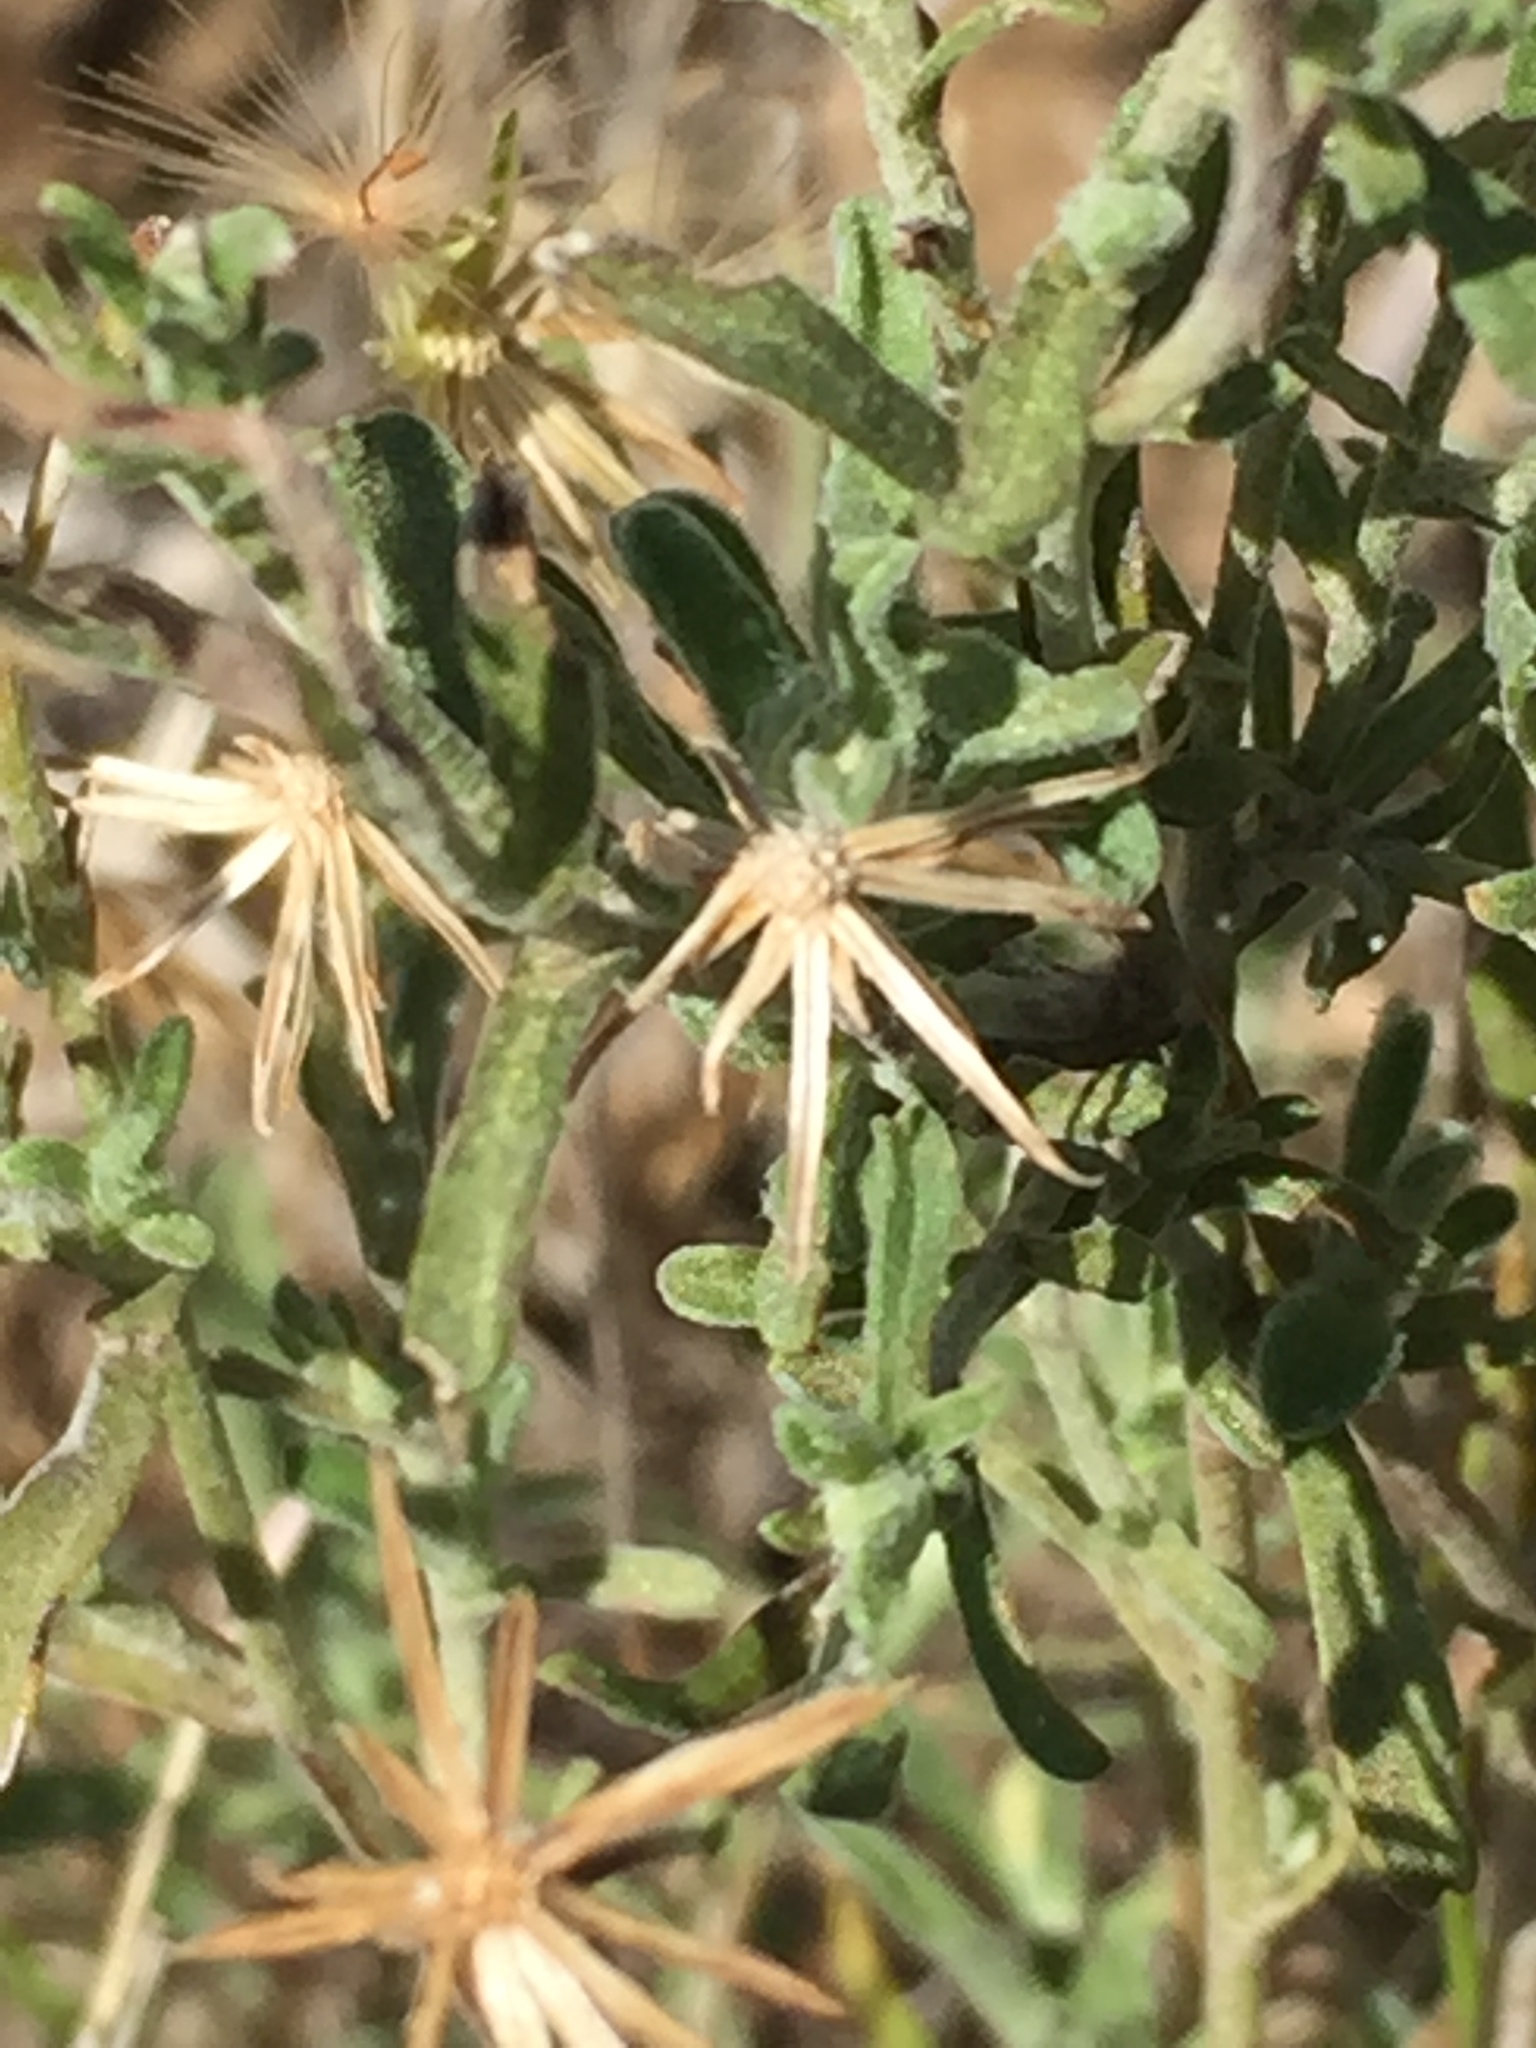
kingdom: Plantae
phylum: Tracheophyta
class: Magnoliopsida
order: Asterales
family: Asteraceae
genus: Vittadinia
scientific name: Vittadinia gracilis
